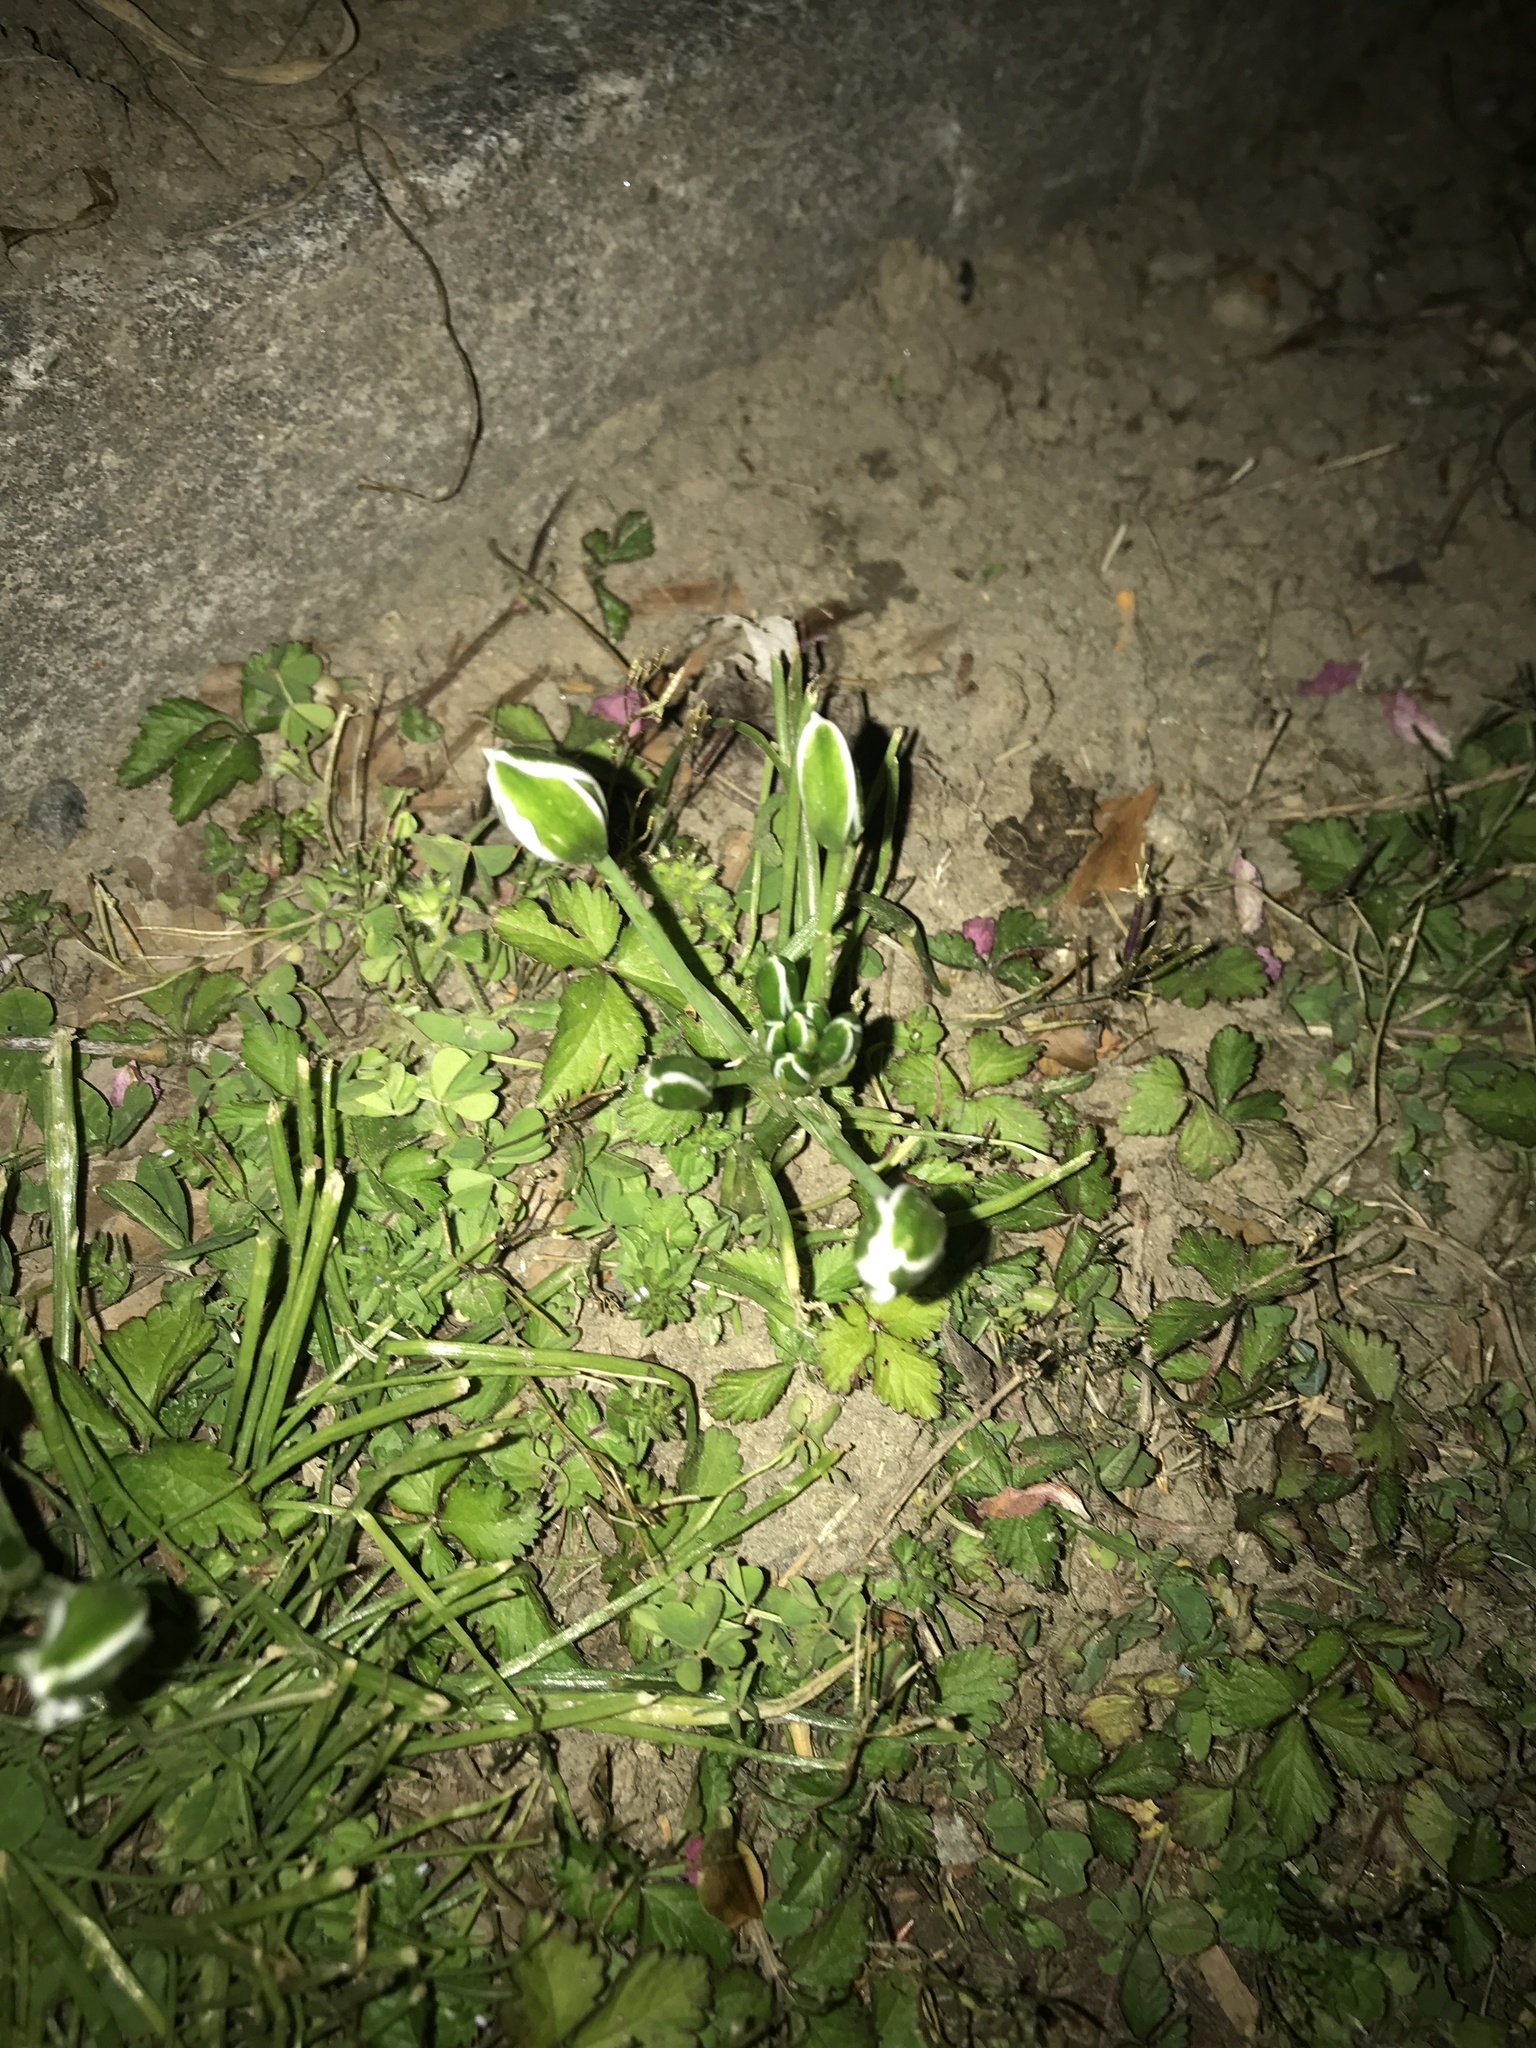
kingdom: Plantae
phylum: Tracheophyta
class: Liliopsida
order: Asparagales
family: Asparagaceae
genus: Ornithogalum
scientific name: Ornithogalum umbellatum
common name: Garden star-of-bethlehem
